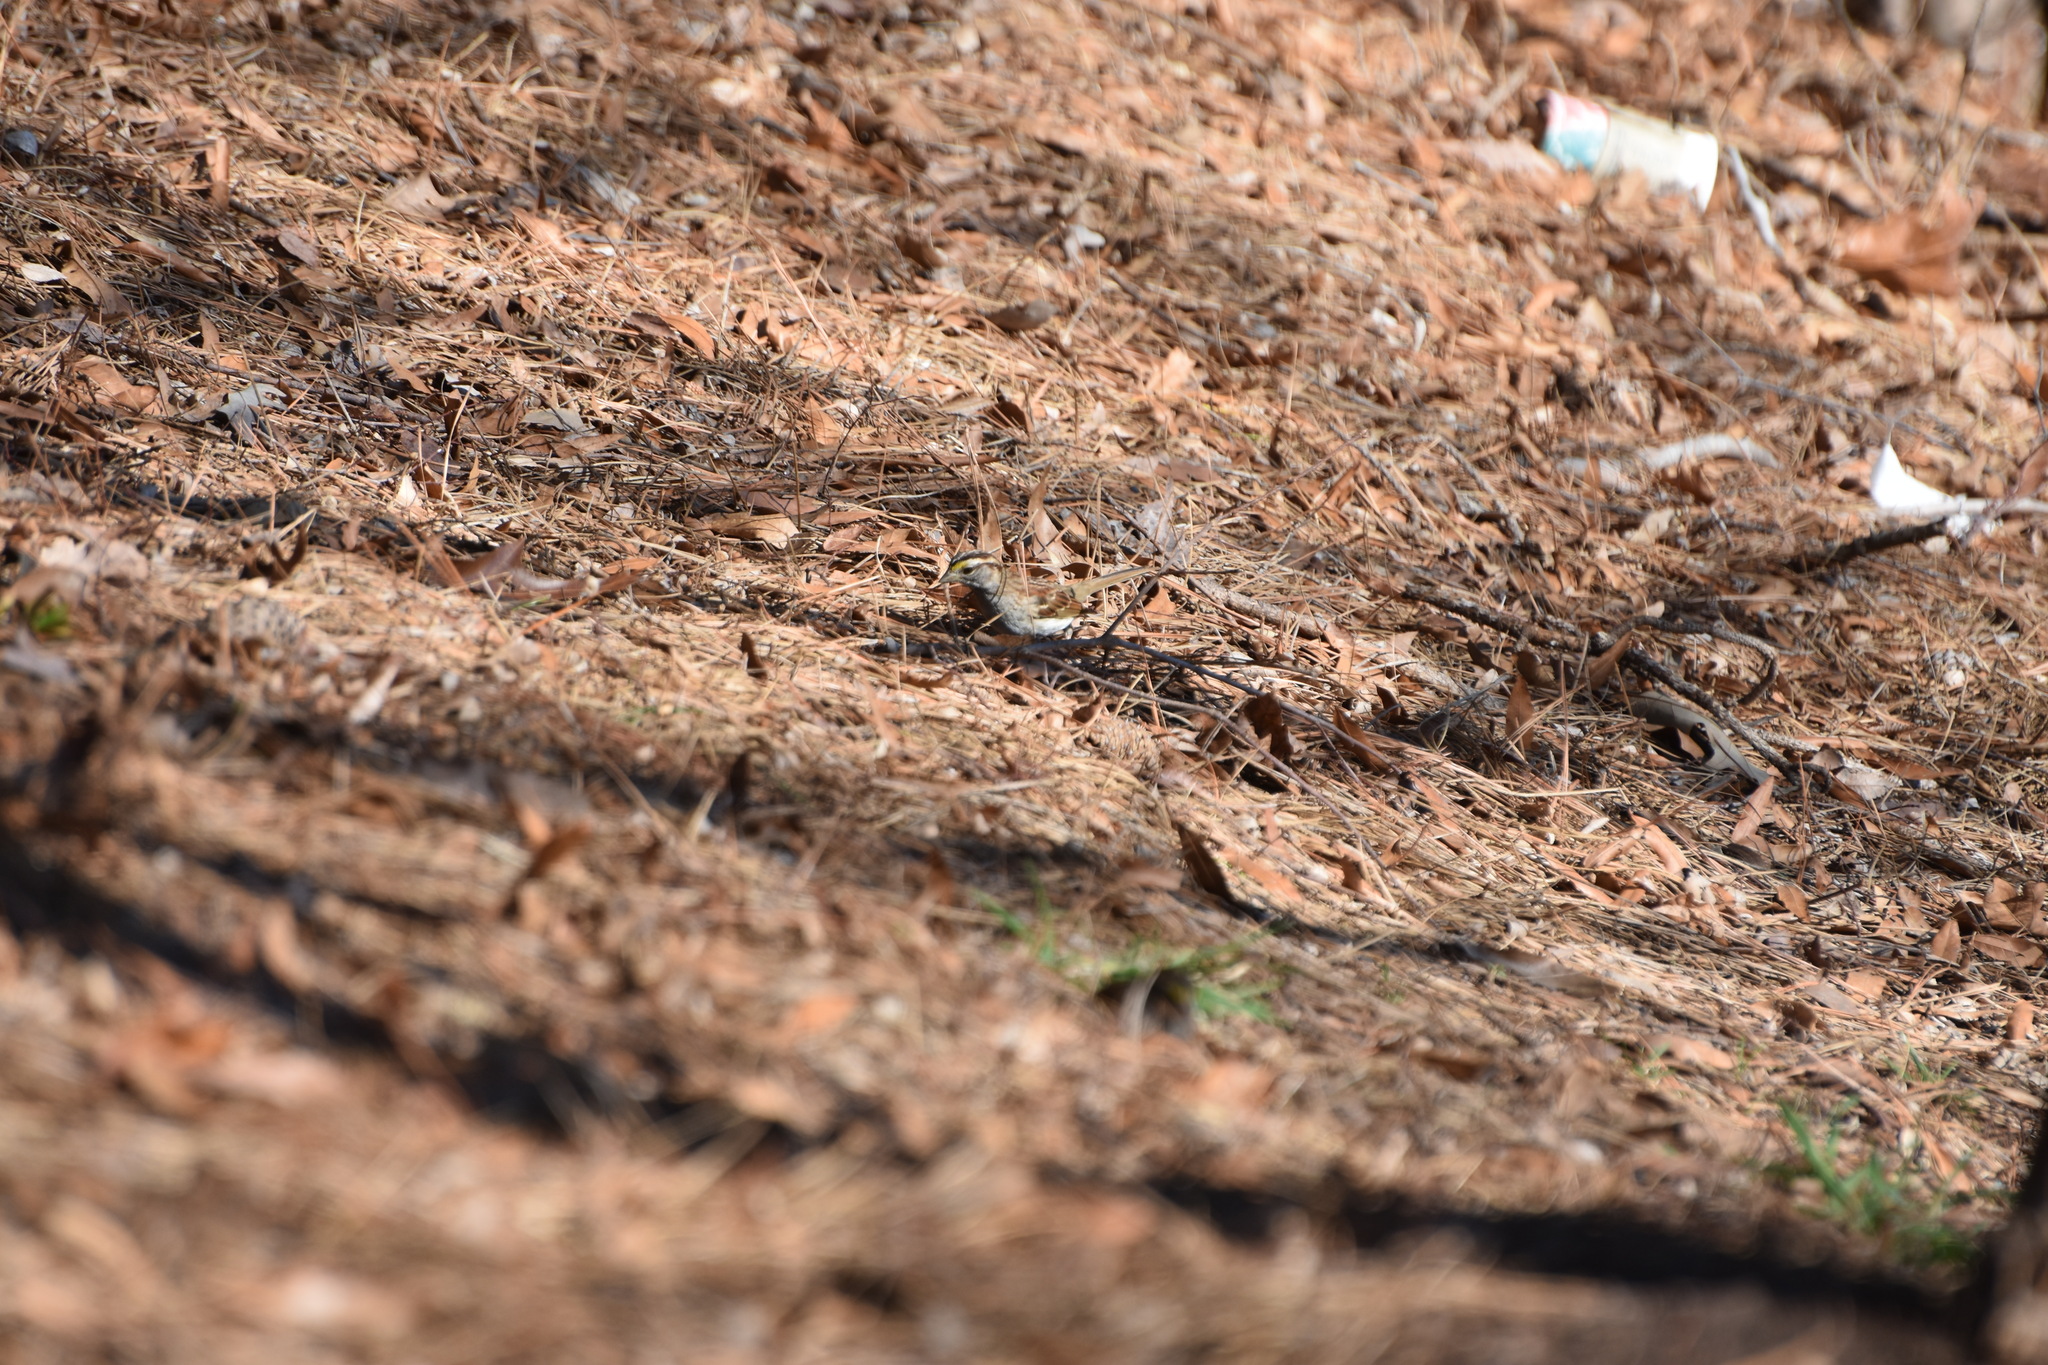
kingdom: Animalia
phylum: Chordata
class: Aves
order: Passeriformes
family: Passerellidae
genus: Zonotrichia
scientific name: Zonotrichia albicollis
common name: White-throated sparrow
